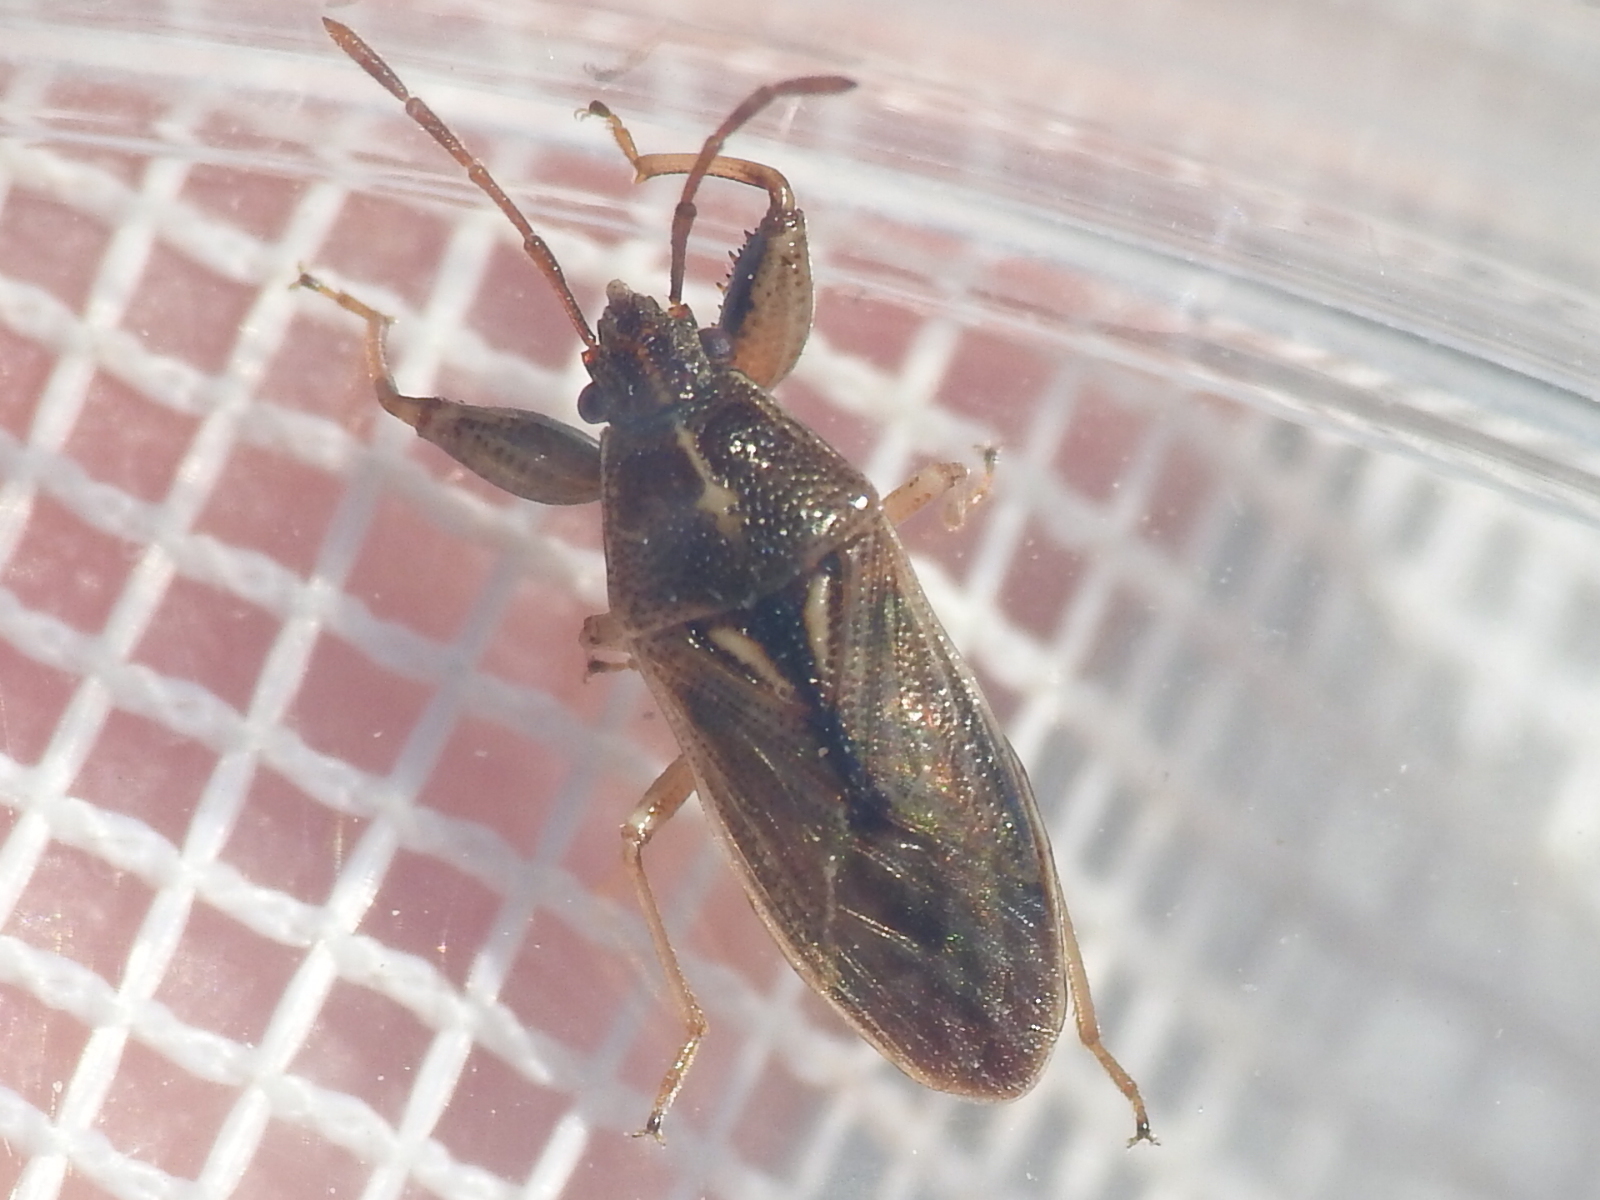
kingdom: Animalia
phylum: Arthropoda
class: Insecta
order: Hemiptera
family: Pachygronthidae
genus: Oedancala
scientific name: Oedancala dorsalis
